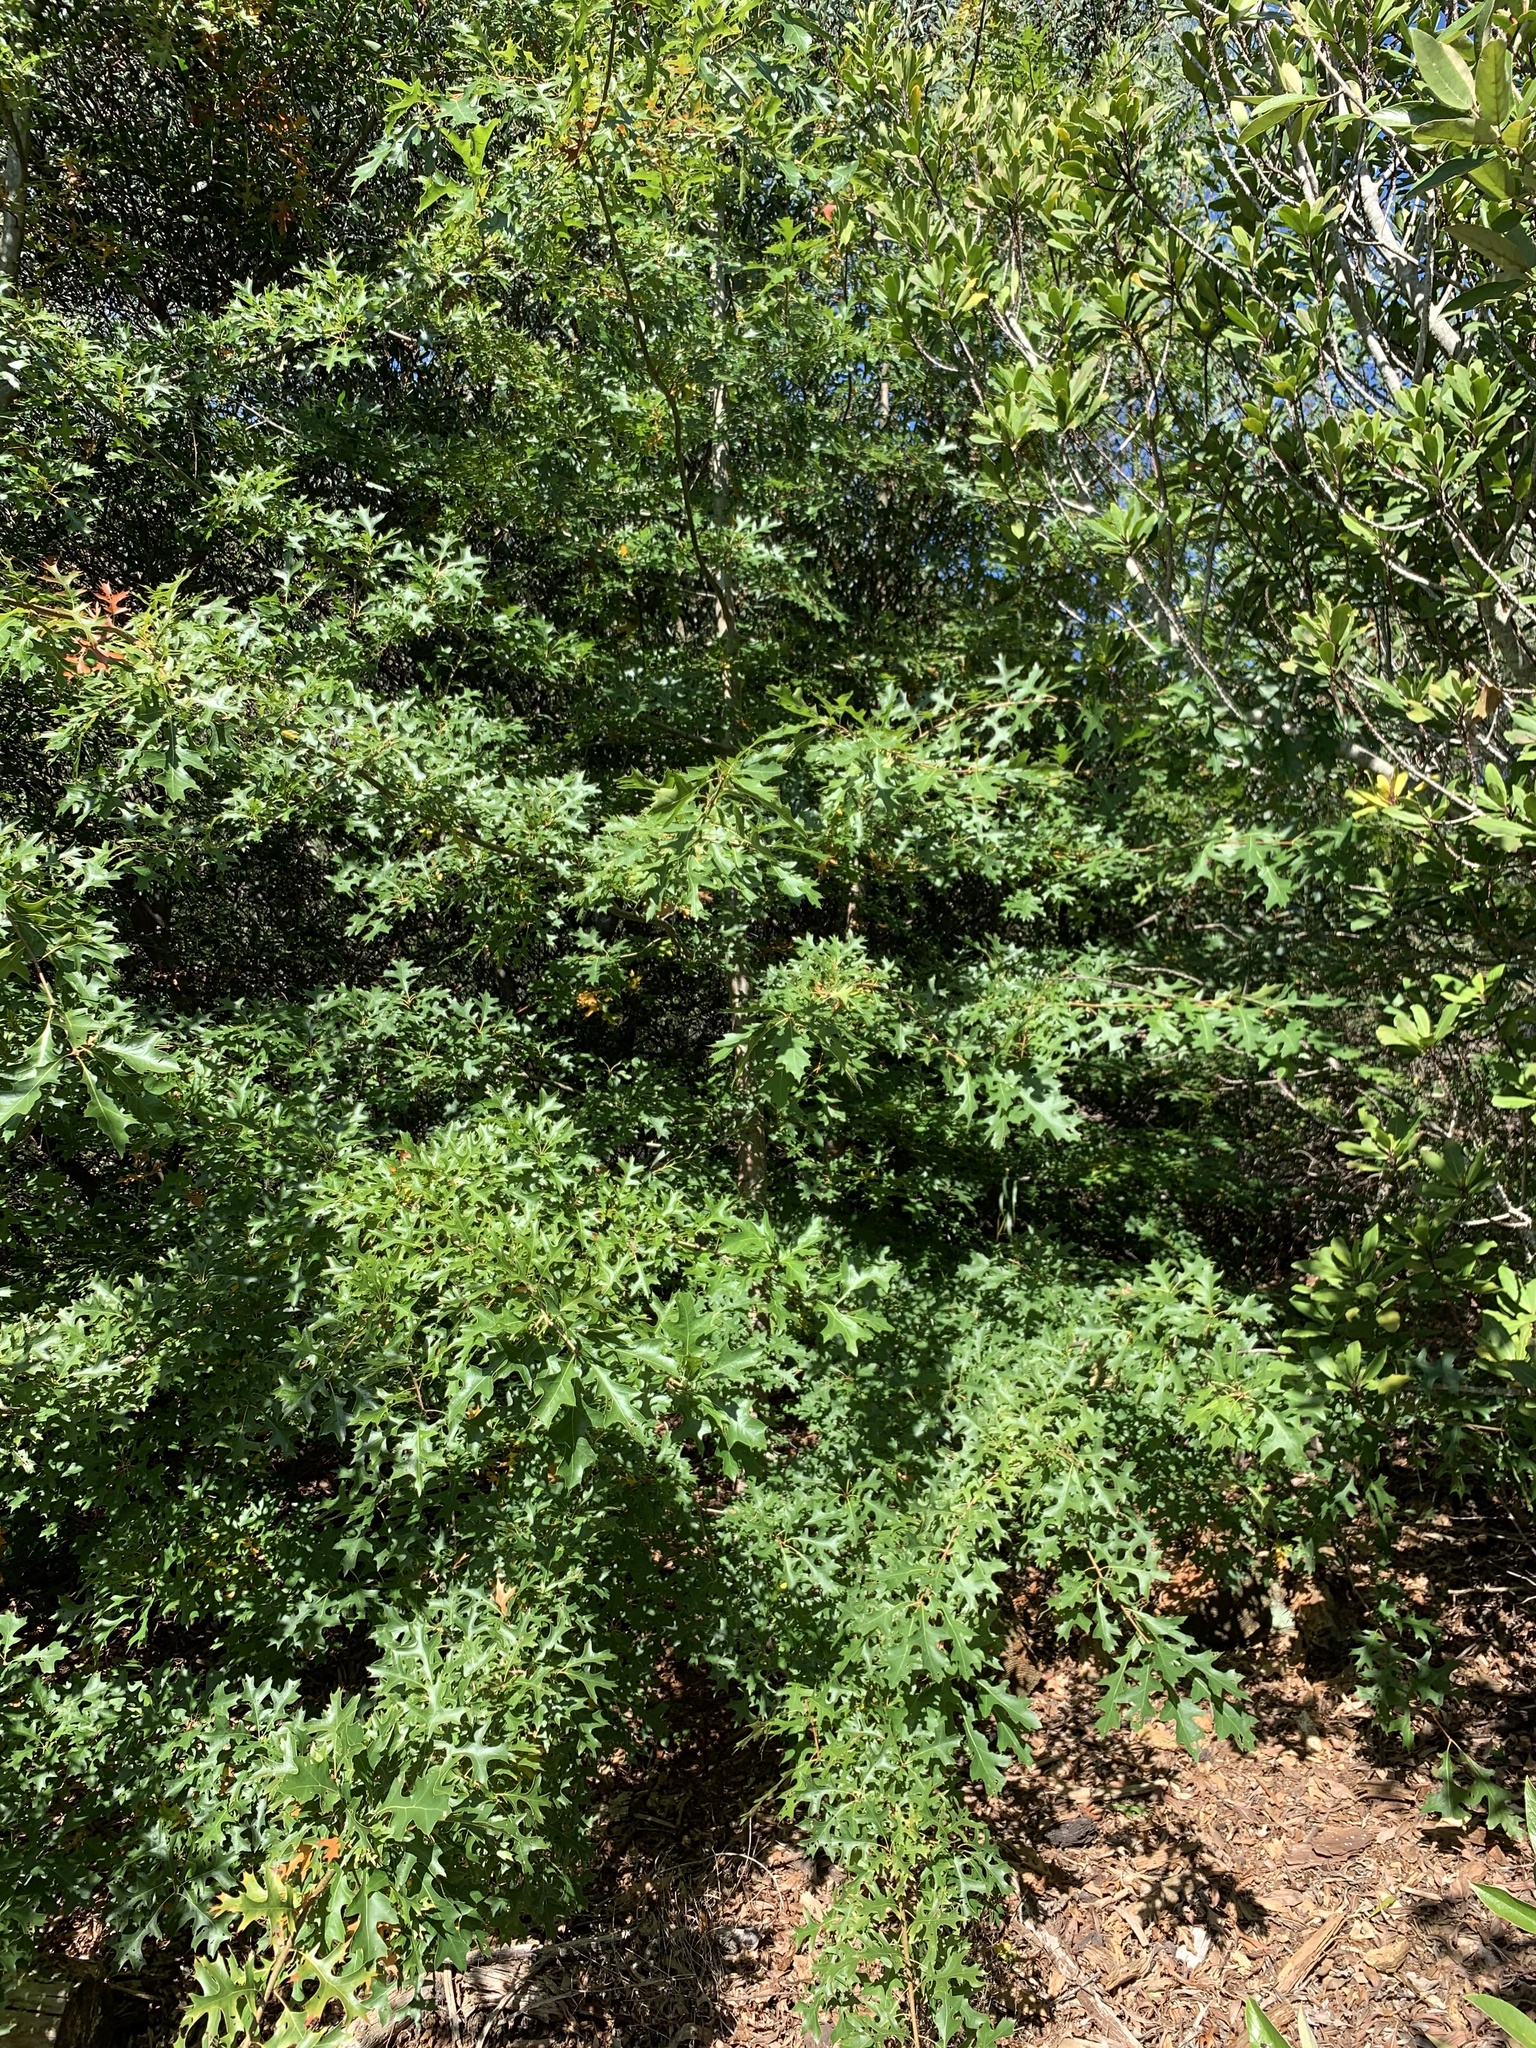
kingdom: Plantae
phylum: Tracheophyta
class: Magnoliopsida
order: Fagales
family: Fagaceae
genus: Quercus
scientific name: Quercus palustris
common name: Pin oak
